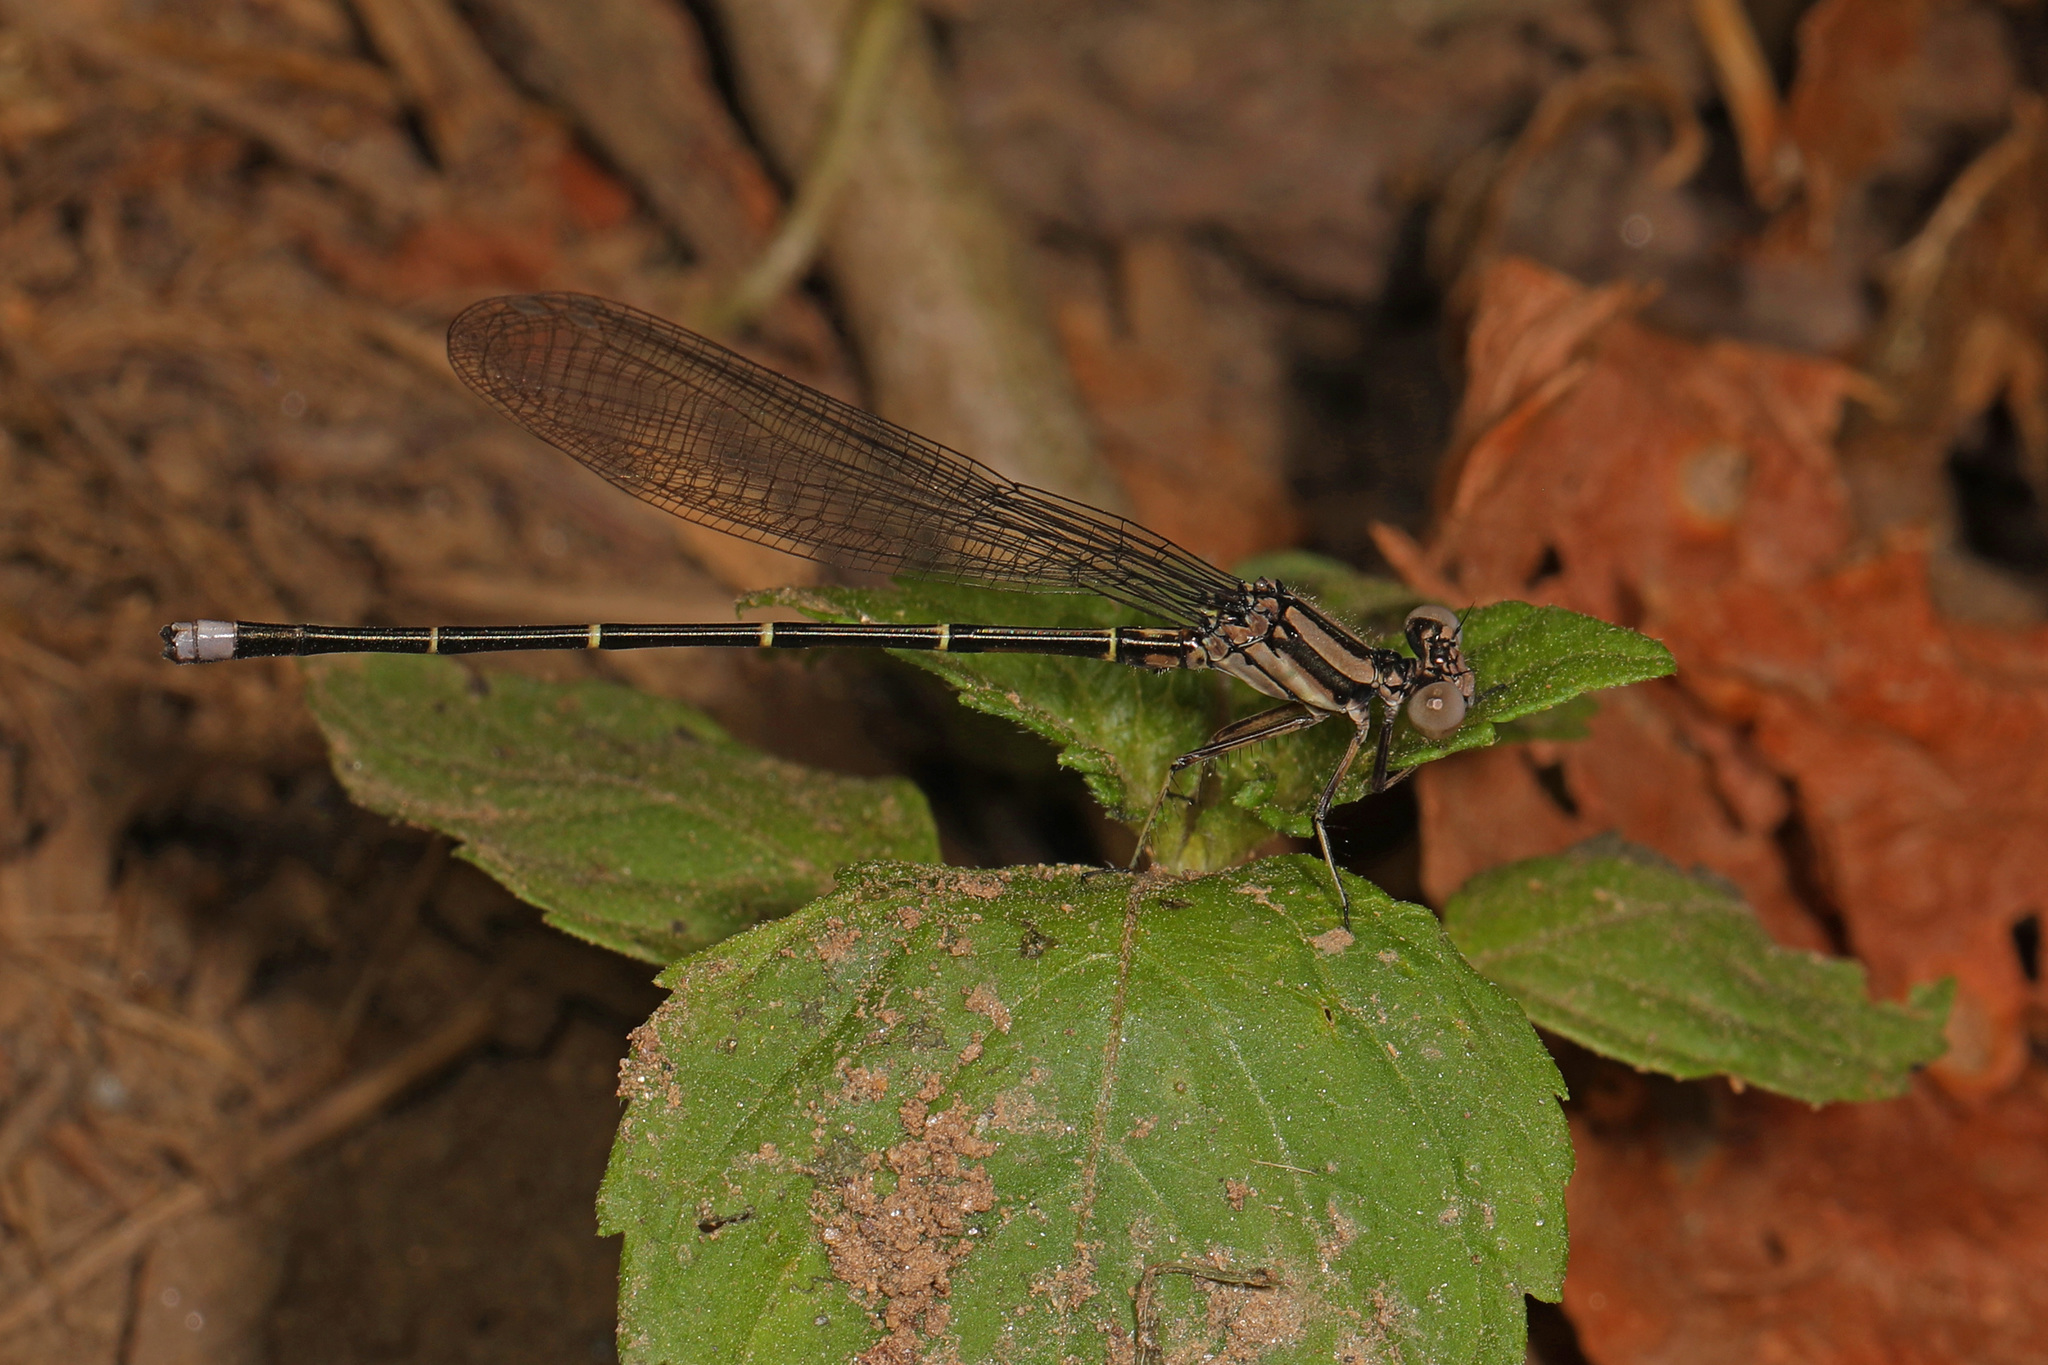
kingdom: Animalia
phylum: Arthropoda
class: Insecta
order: Odonata
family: Coenagrionidae
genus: Argia
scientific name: Argia tibialis
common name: Blue-tipped dancer
